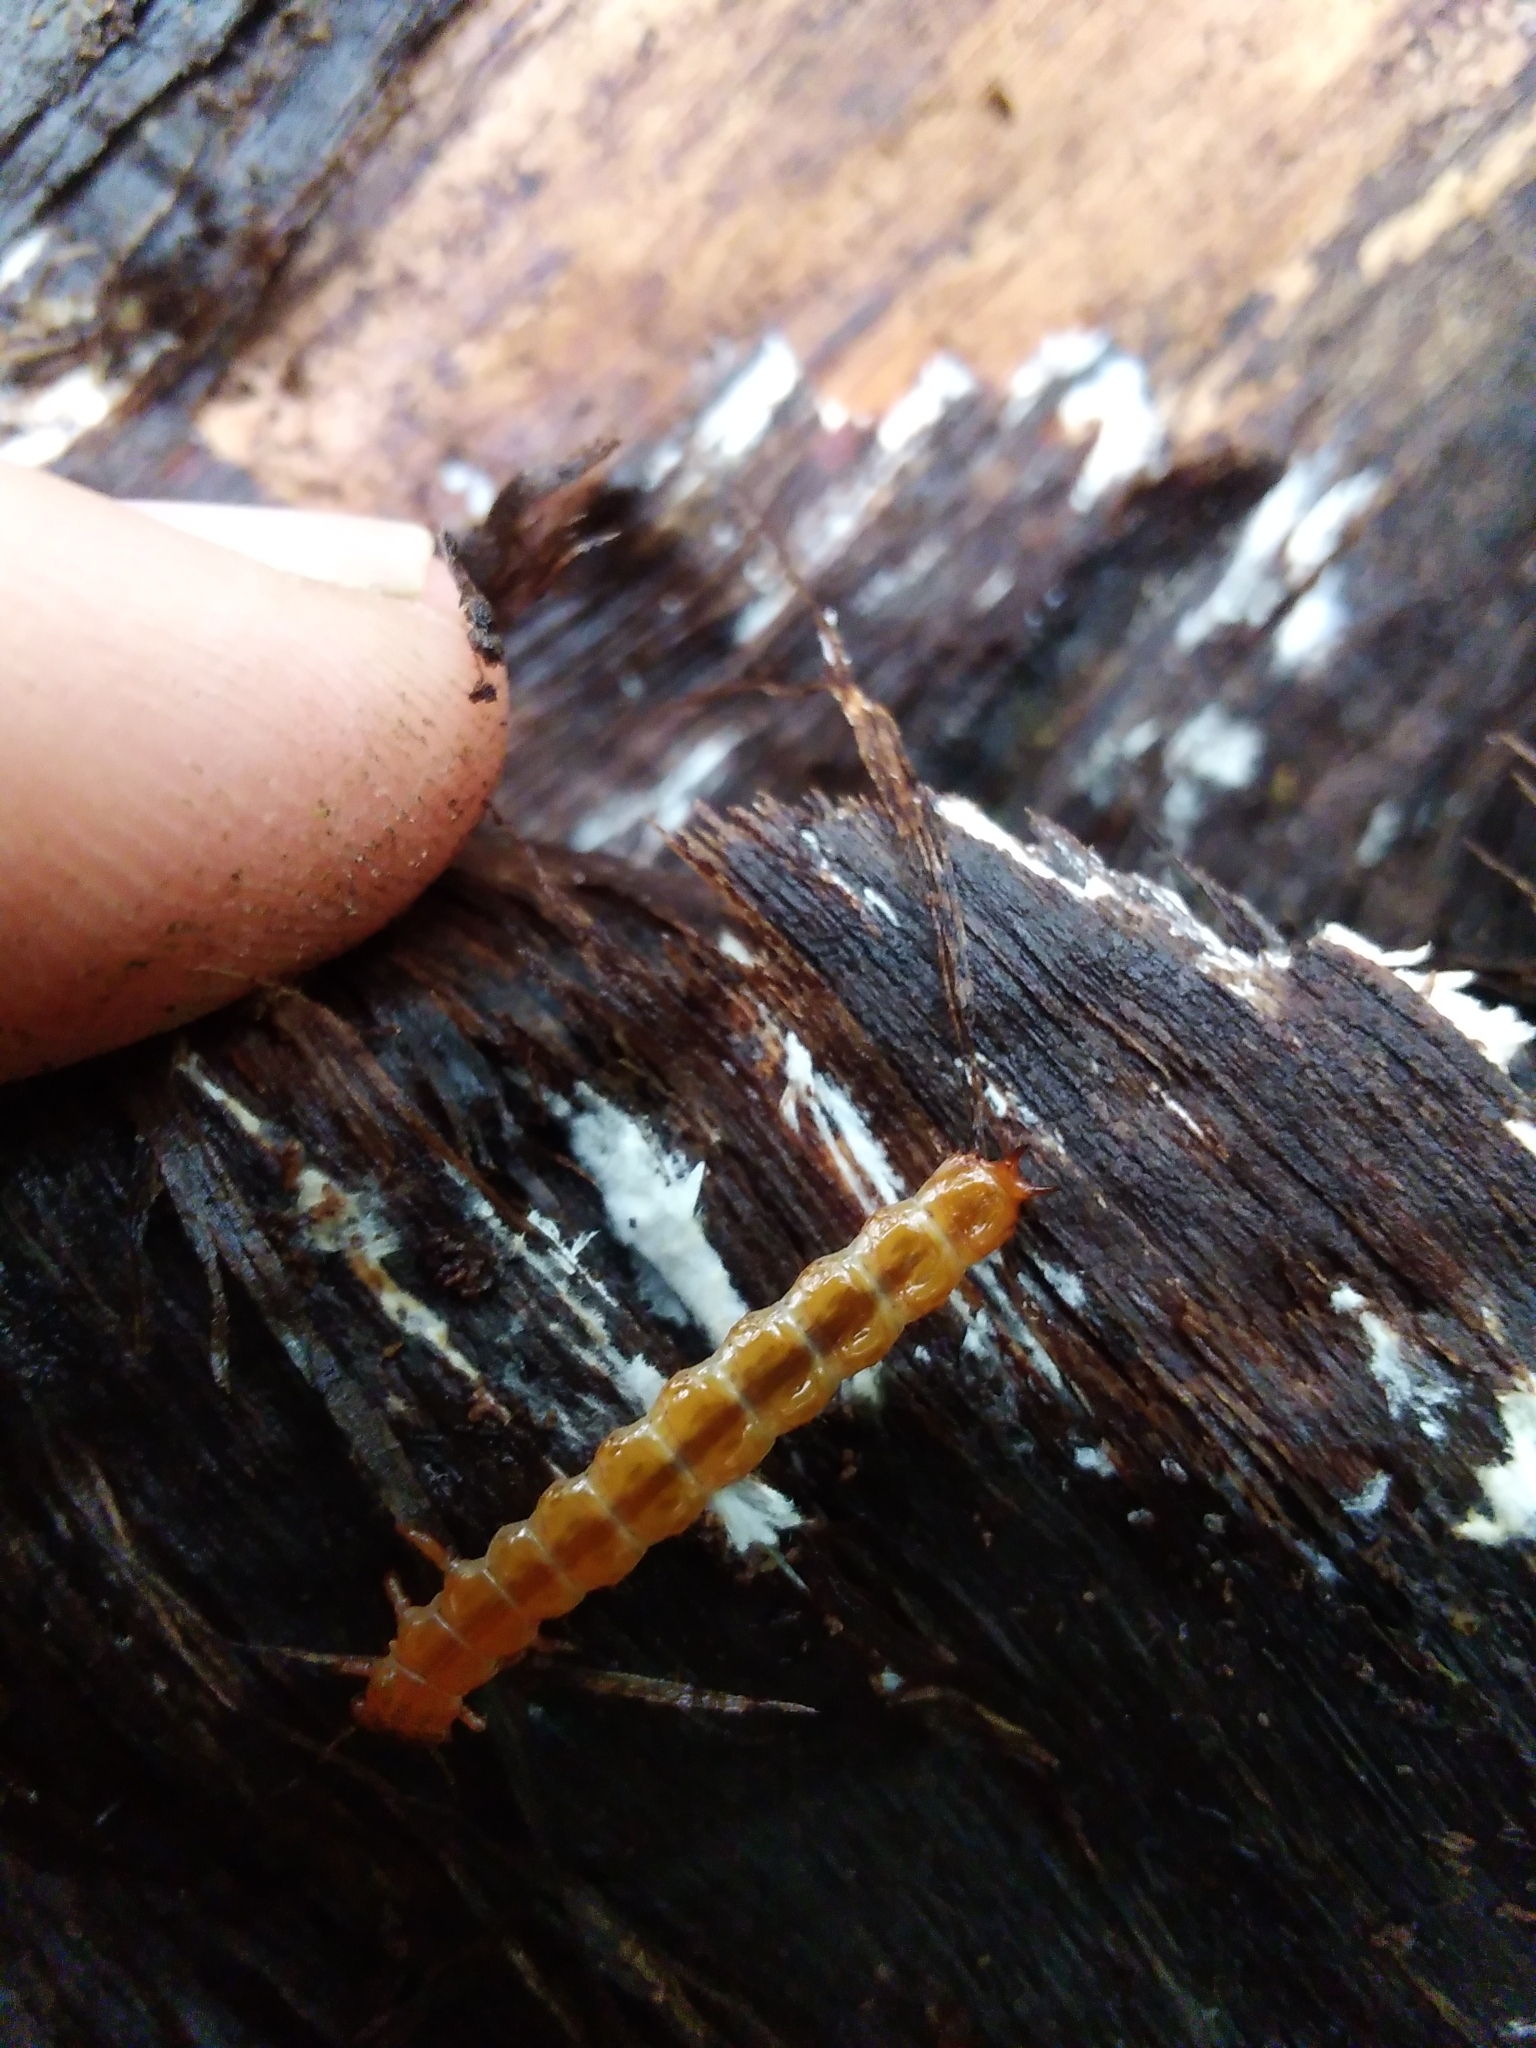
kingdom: Animalia
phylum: Arthropoda
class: Insecta
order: Coleoptera
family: Cucujidae
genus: Cucujus
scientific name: Cucujus cinnaberinus
